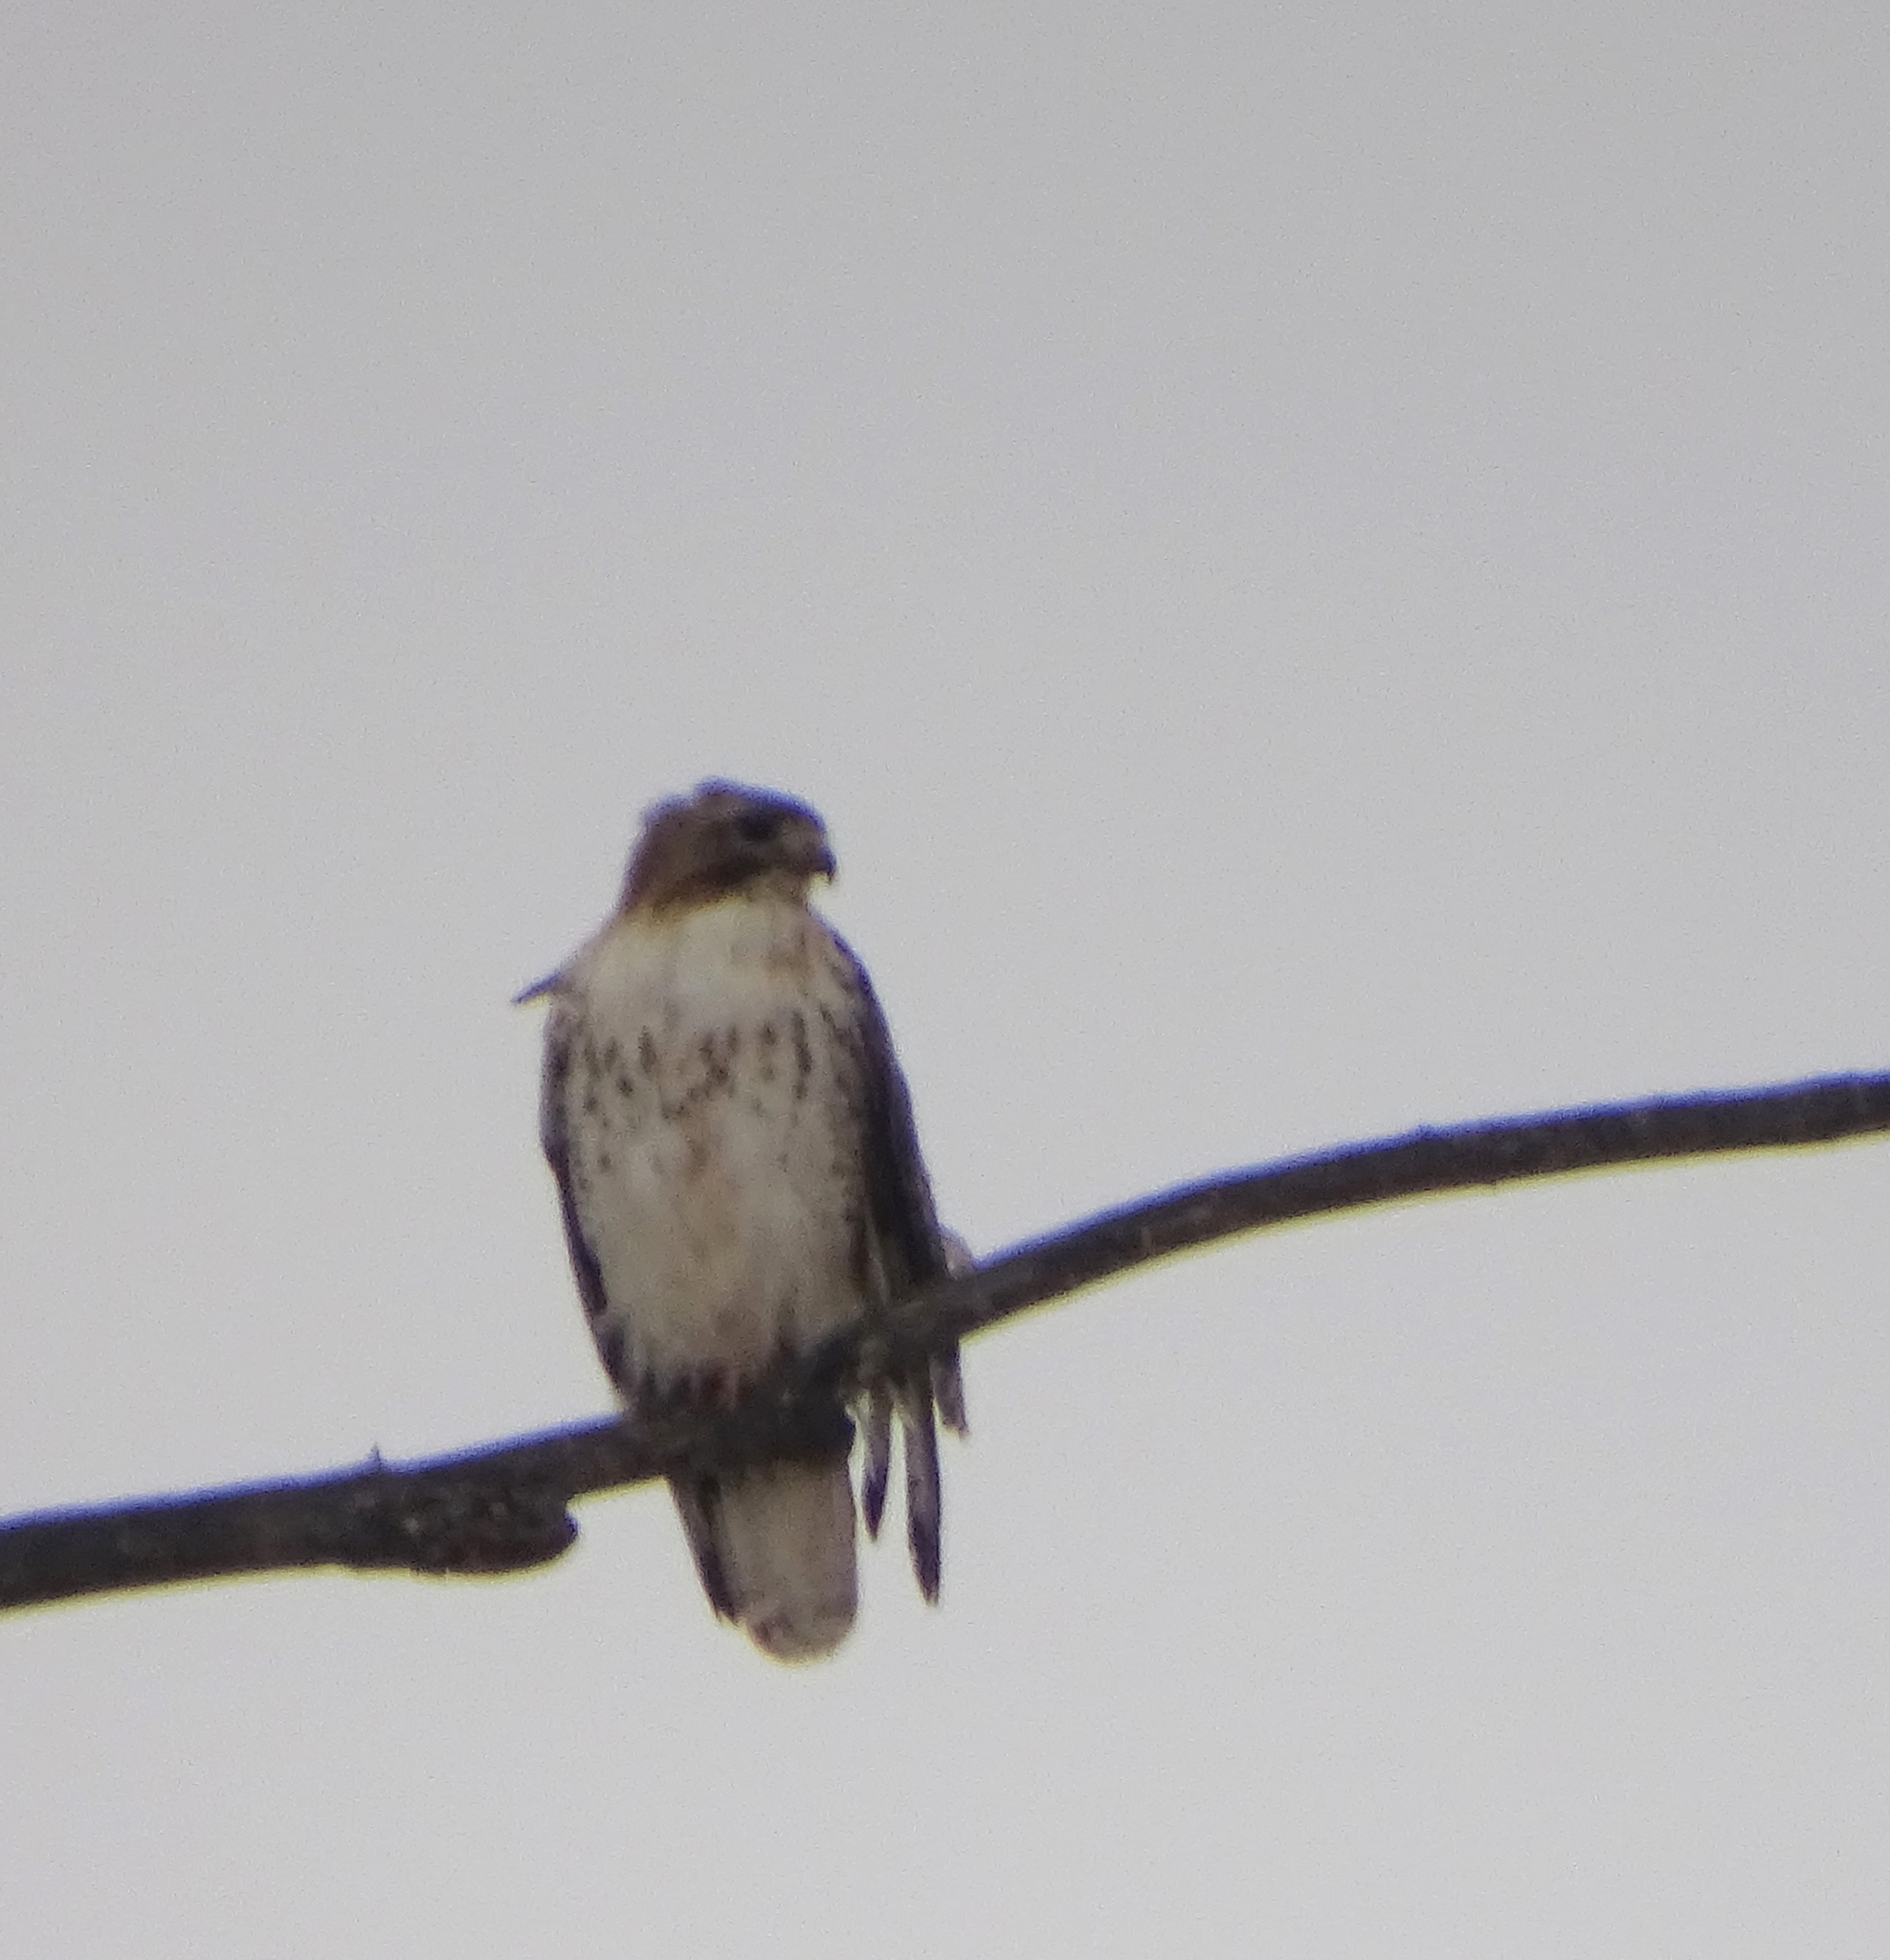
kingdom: Animalia
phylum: Chordata
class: Aves
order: Accipitriformes
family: Accipitridae
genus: Buteo
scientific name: Buteo jamaicensis
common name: Red-tailed hawk
